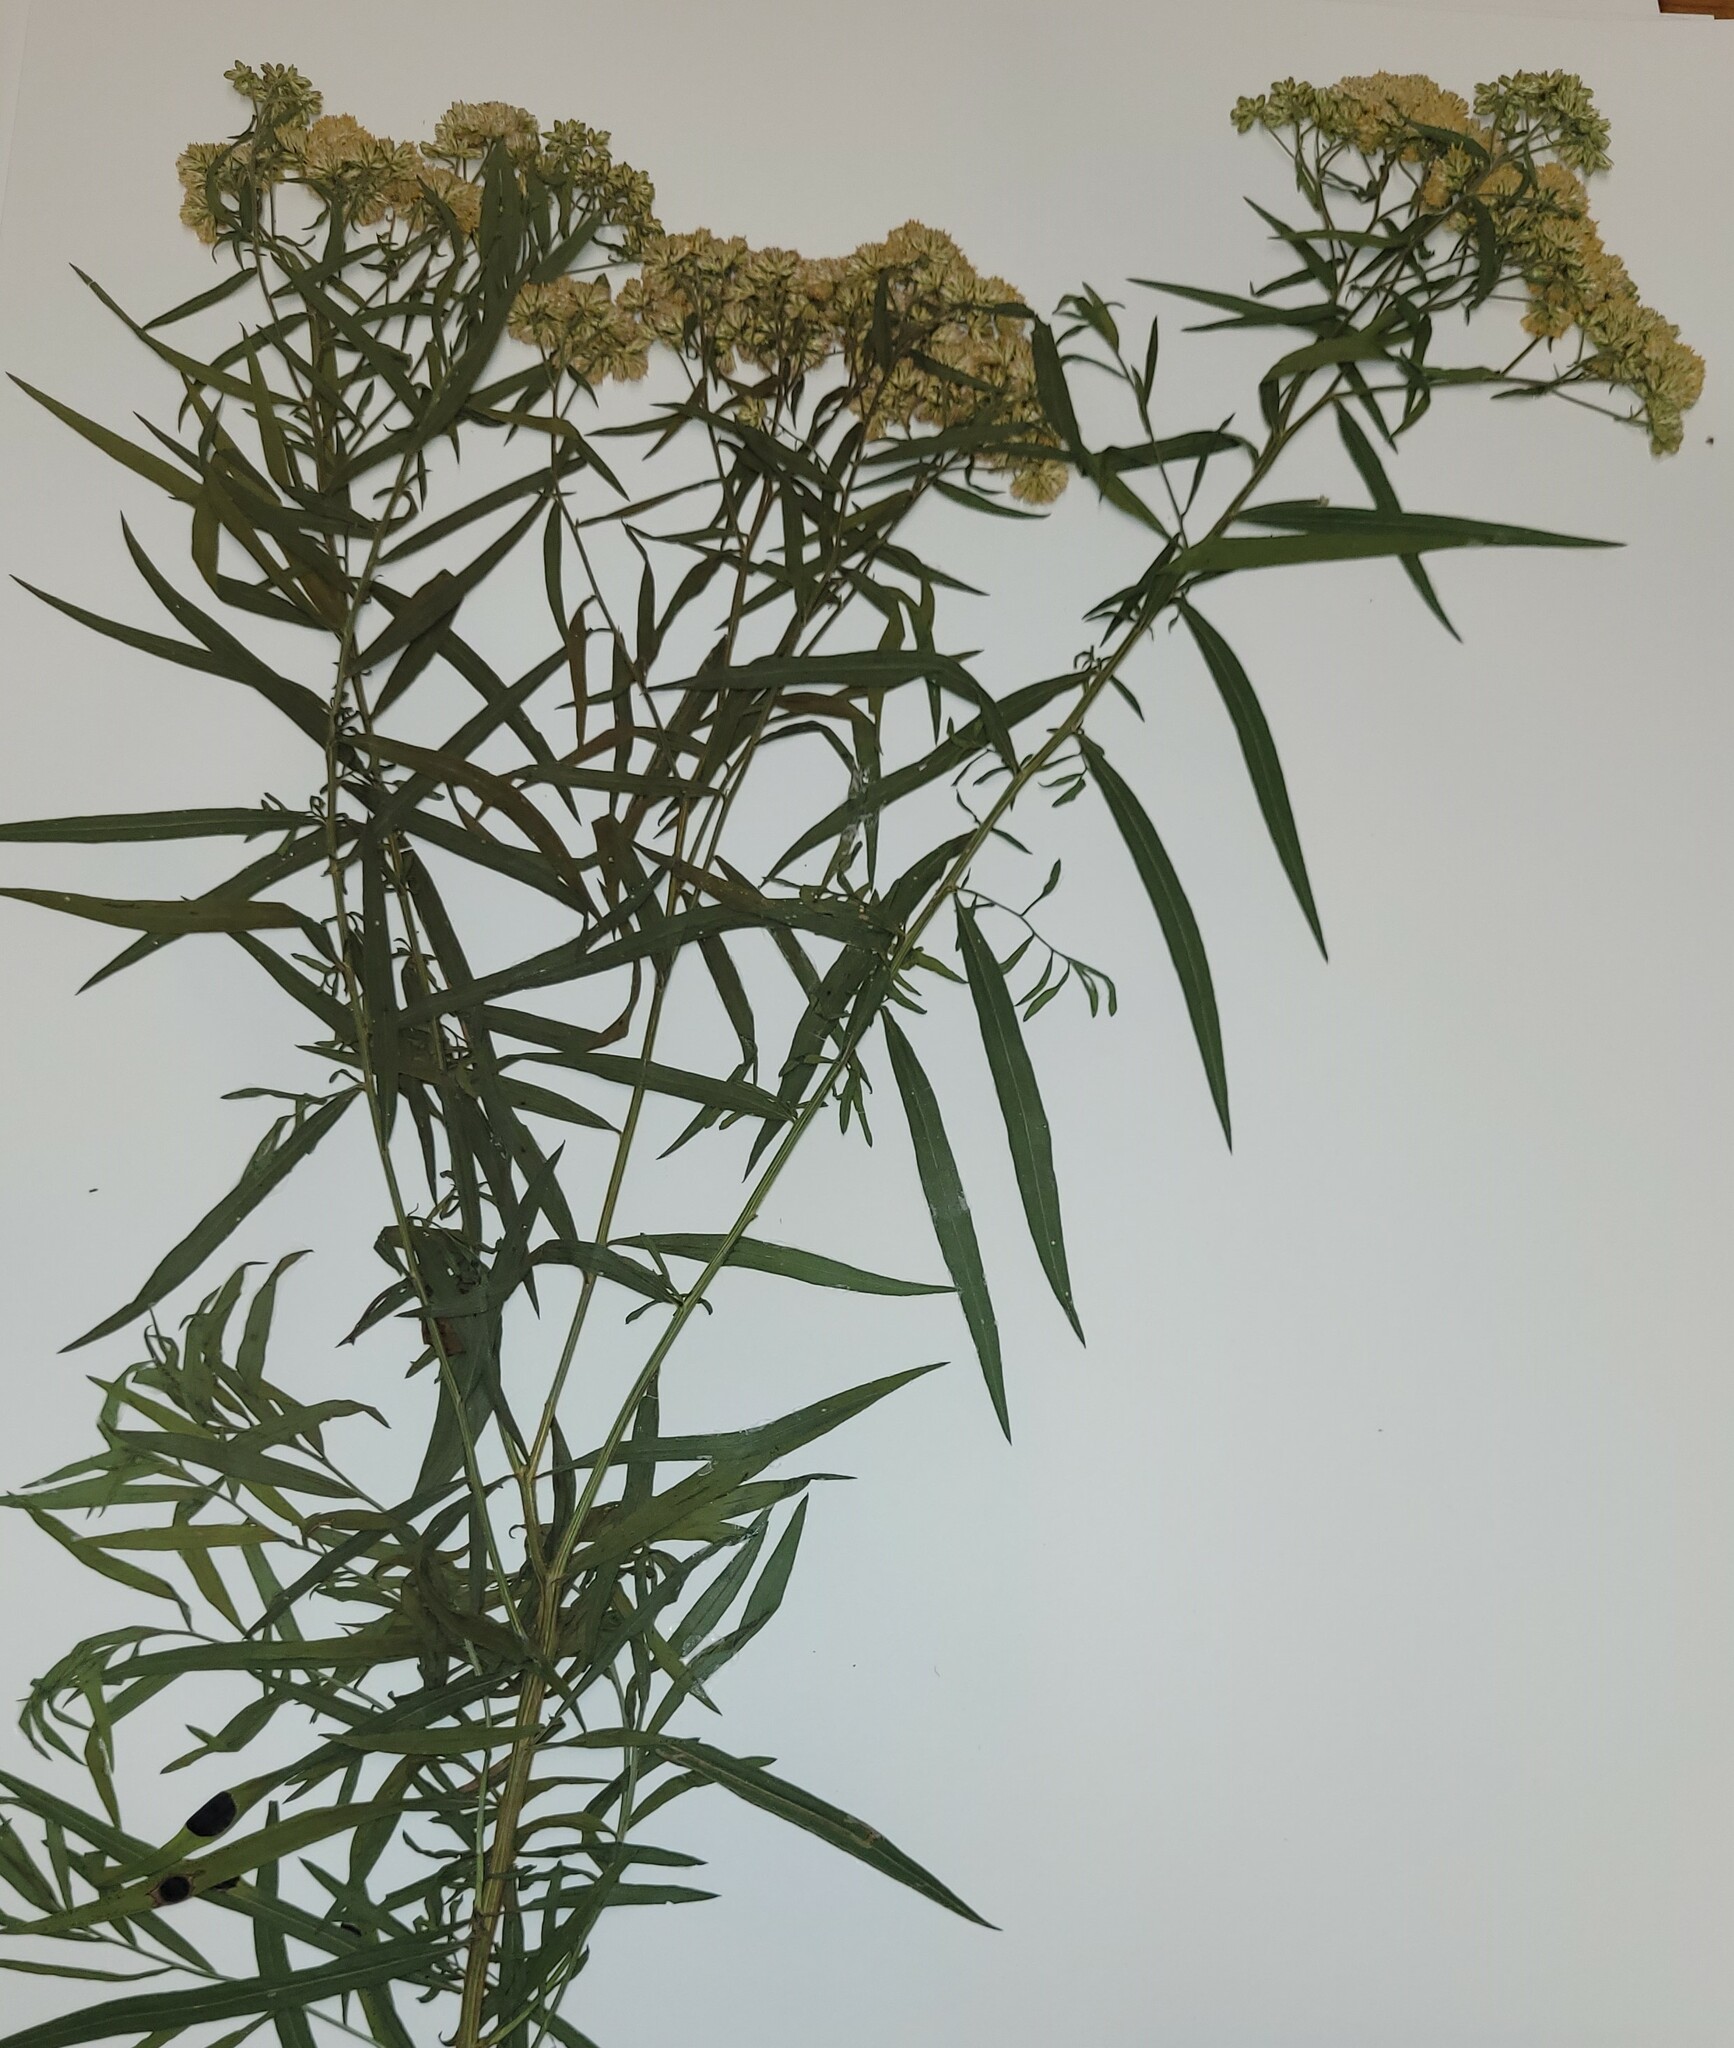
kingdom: Animalia
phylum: Arthropoda
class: Insecta
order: Diptera
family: Cecidomyiidae
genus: Asteromyia
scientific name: Asteromyia euthamiae
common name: Euthamia leaf gall midge
